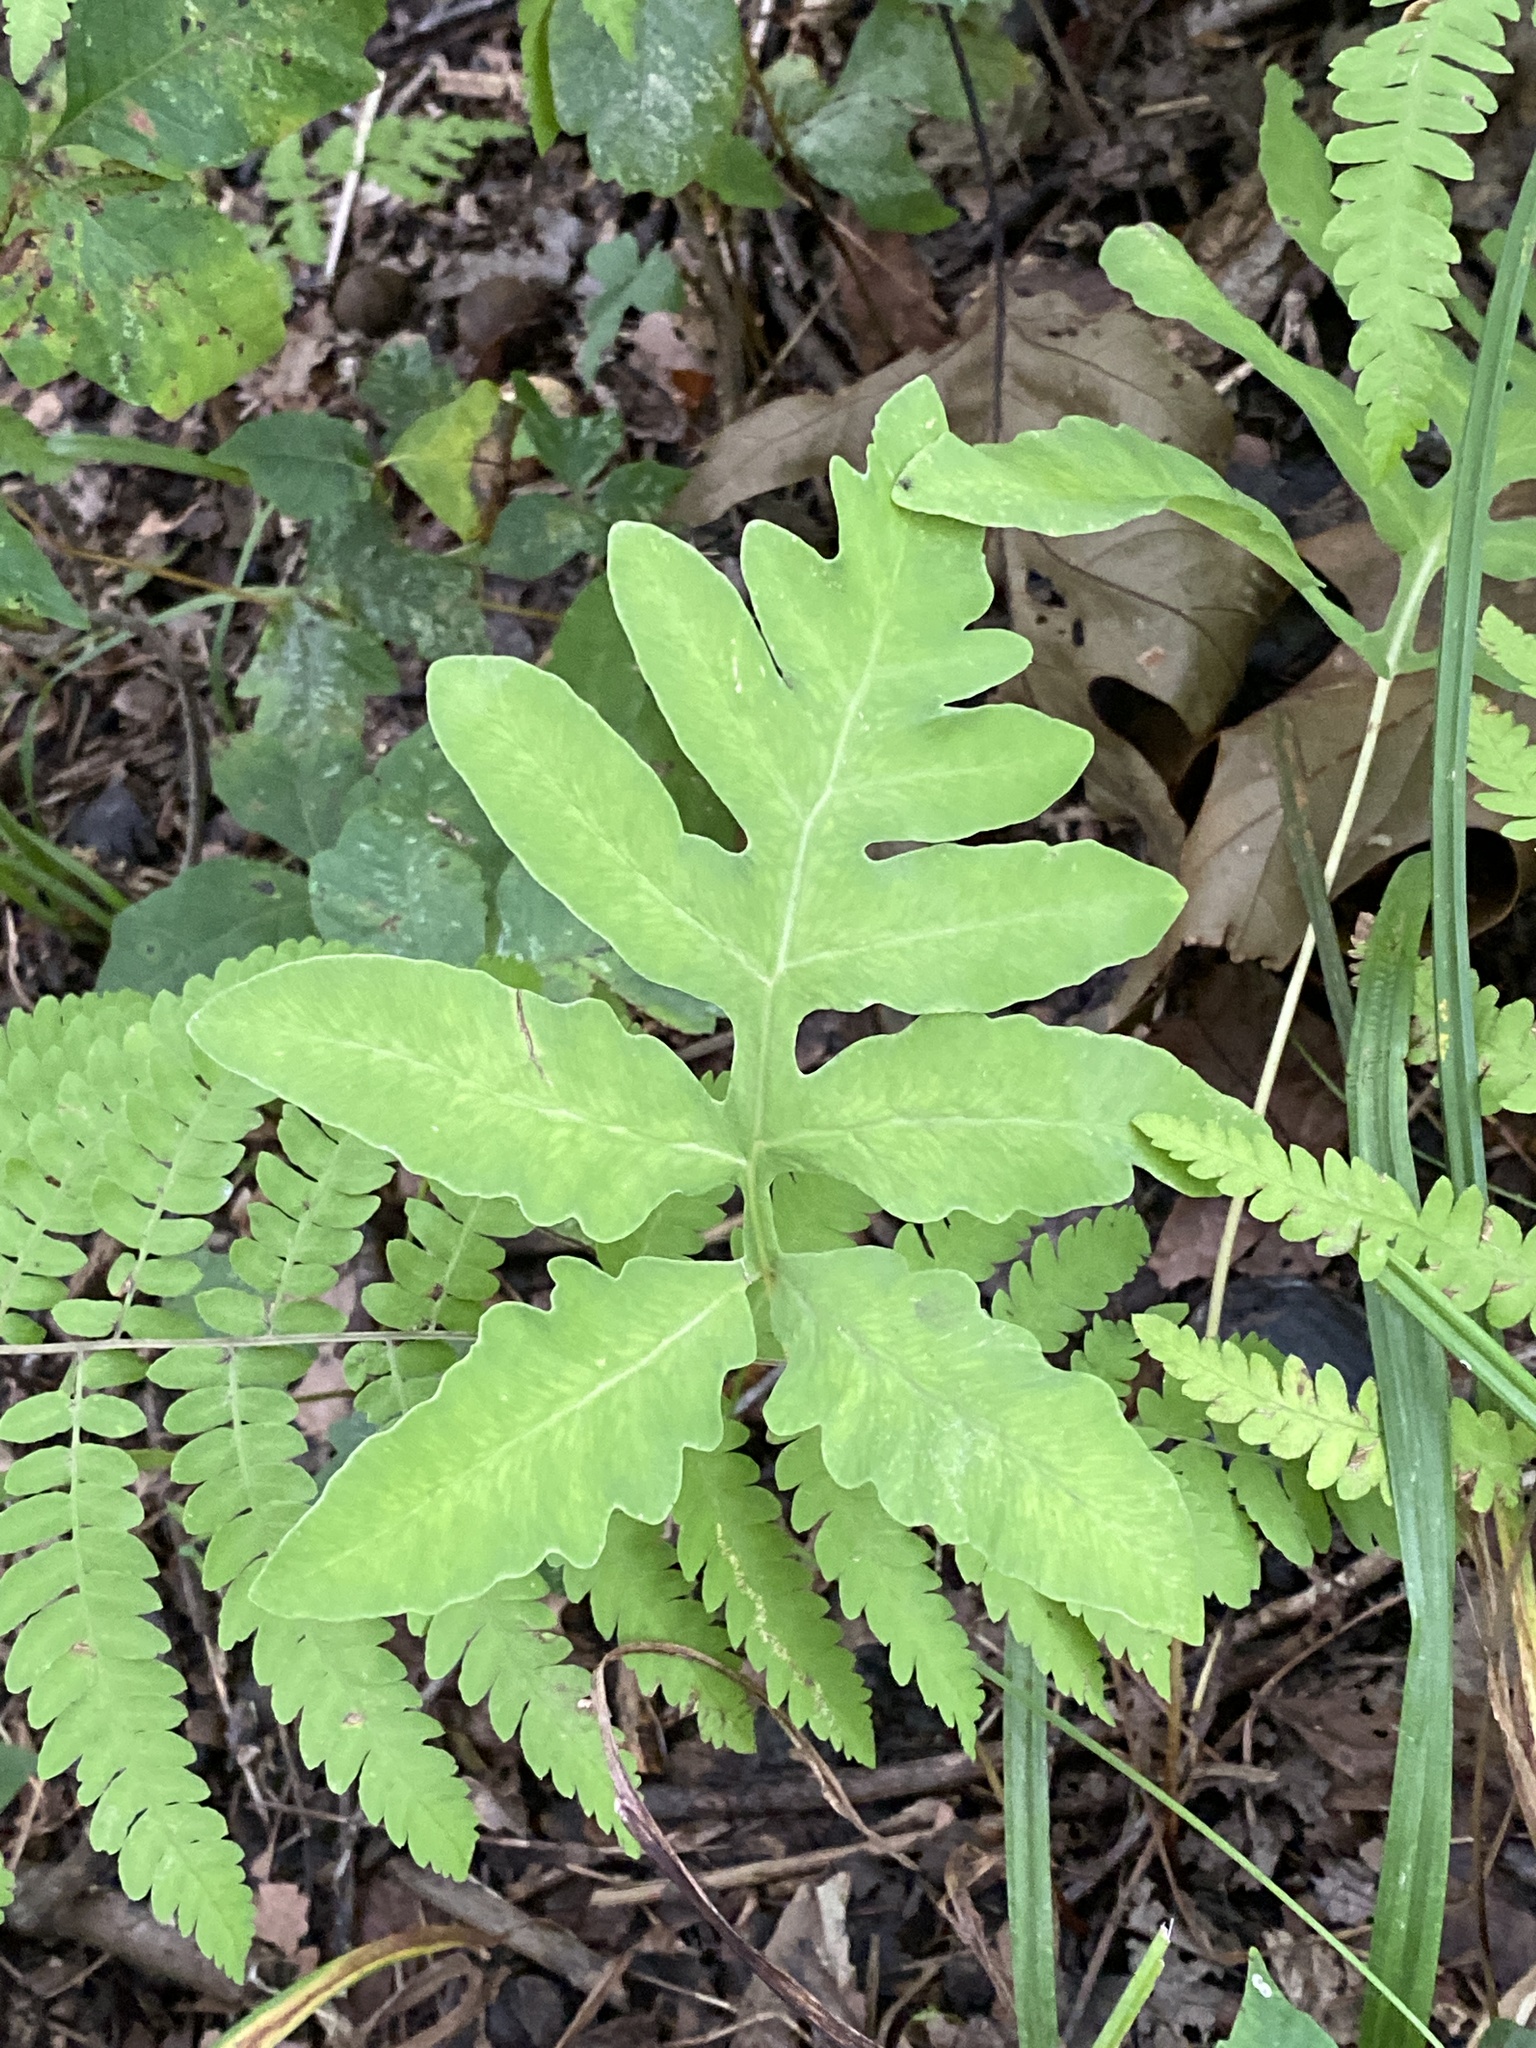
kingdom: Plantae
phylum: Tracheophyta
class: Polypodiopsida
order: Polypodiales
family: Onocleaceae
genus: Onoclea
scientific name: Onoclea sensibilis
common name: Sensitive fern
